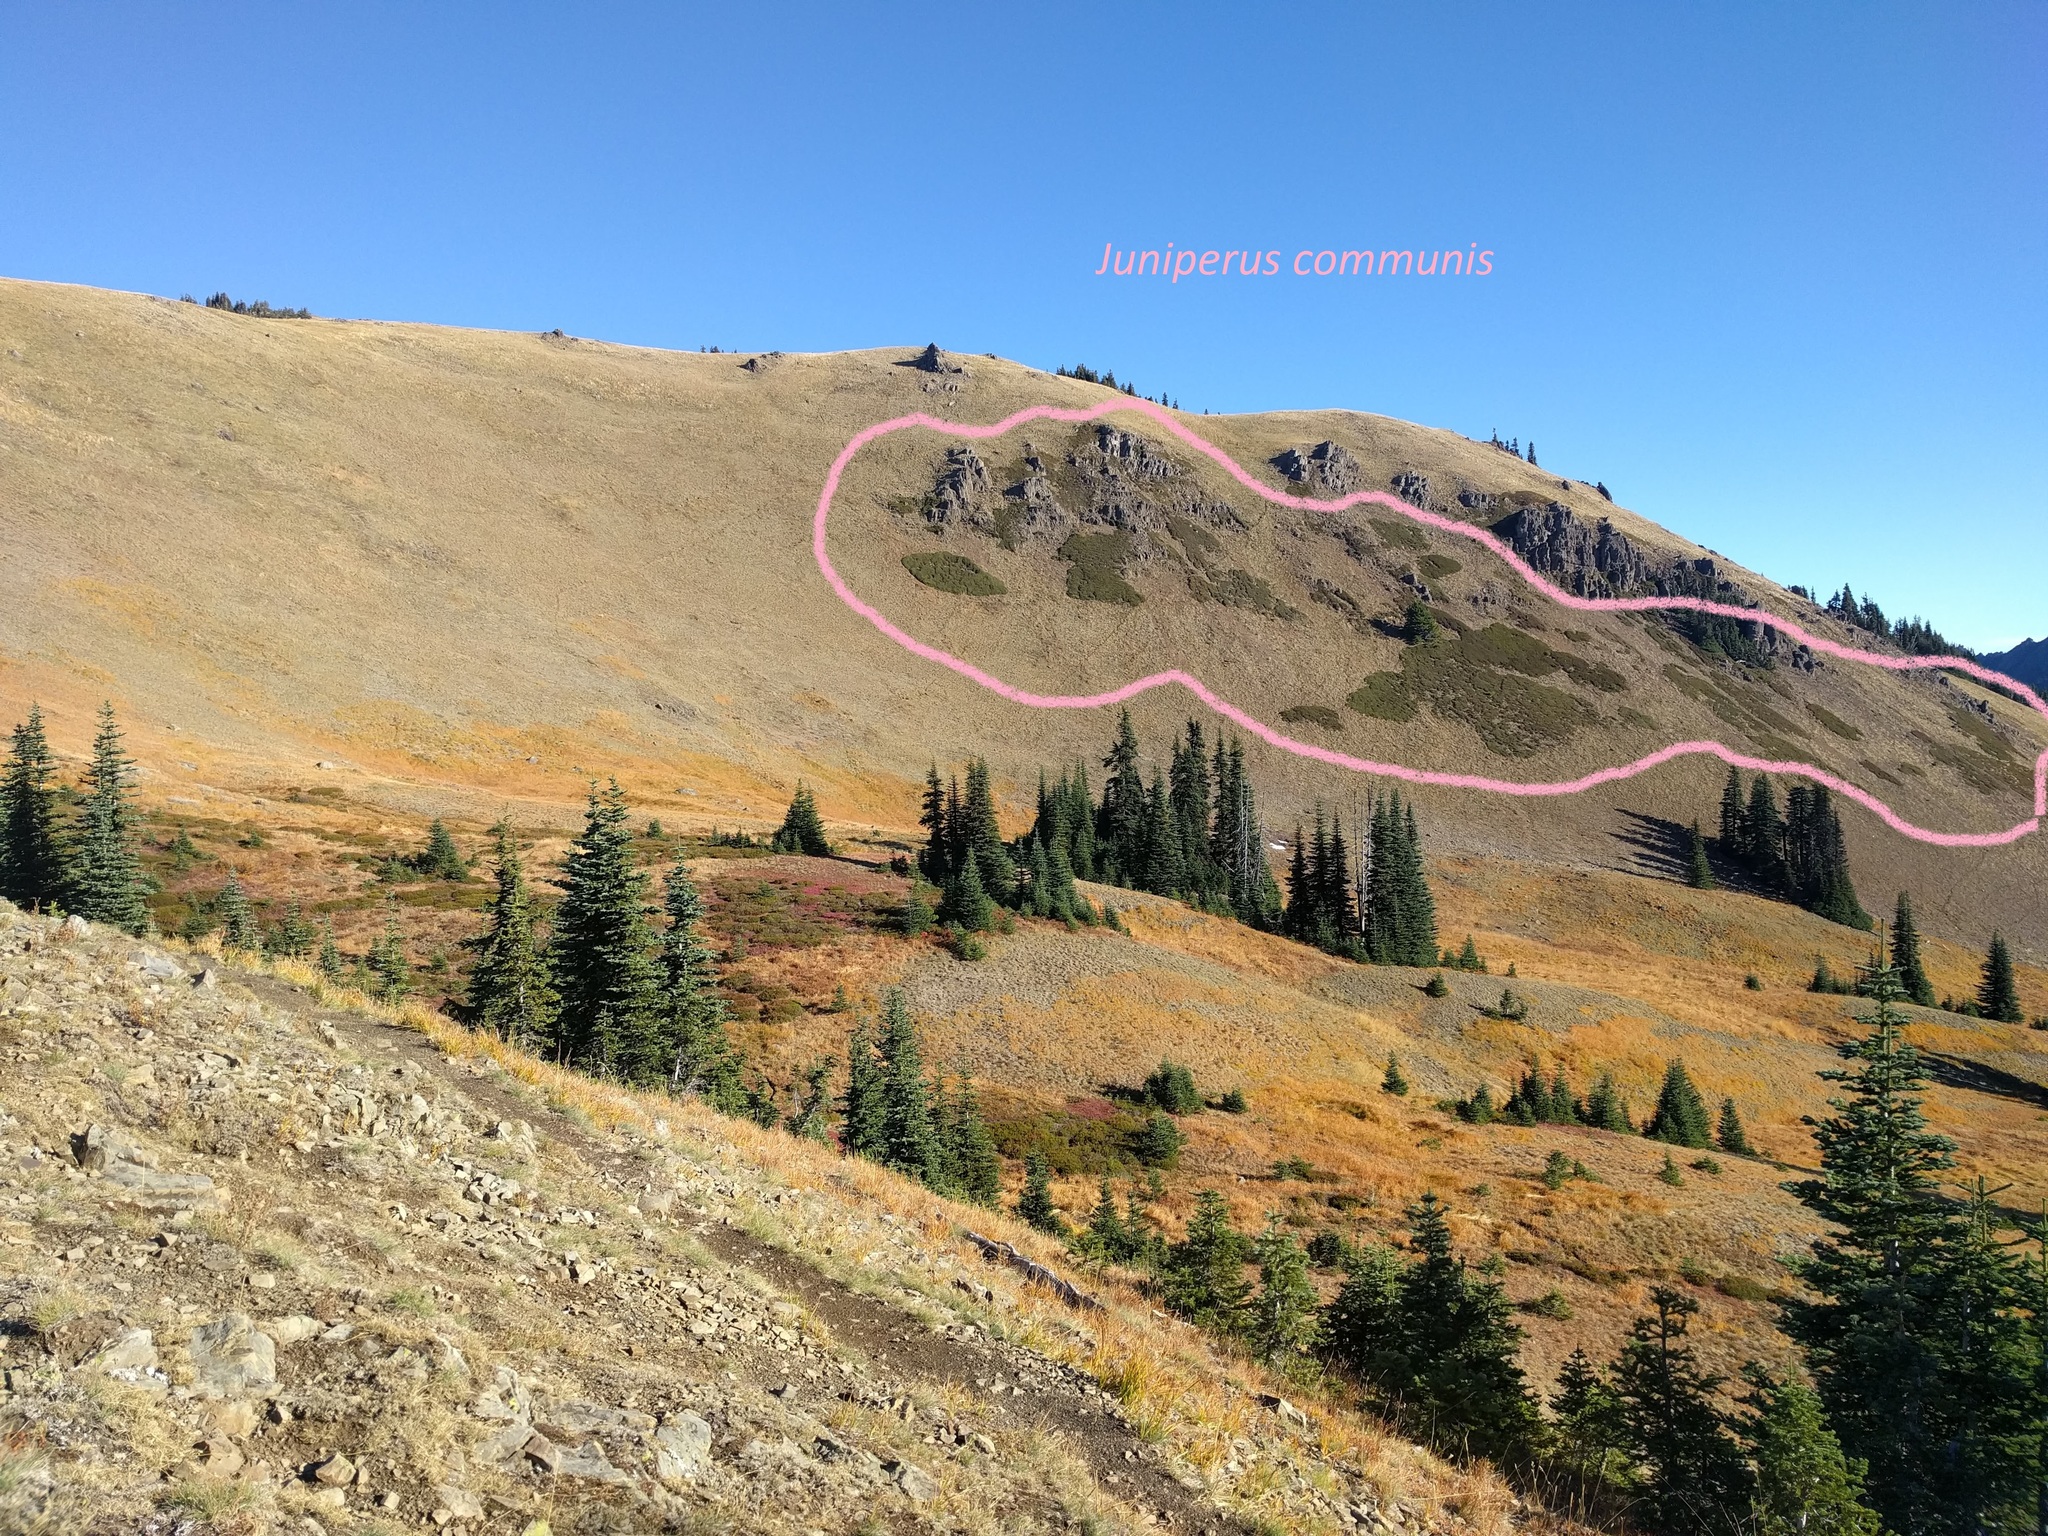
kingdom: Plantae
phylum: Tracheophyta
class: Pinopsida
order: Pinales
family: Cupressaceae
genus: Juniperus
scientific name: Juniperus communis
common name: Common juniper
